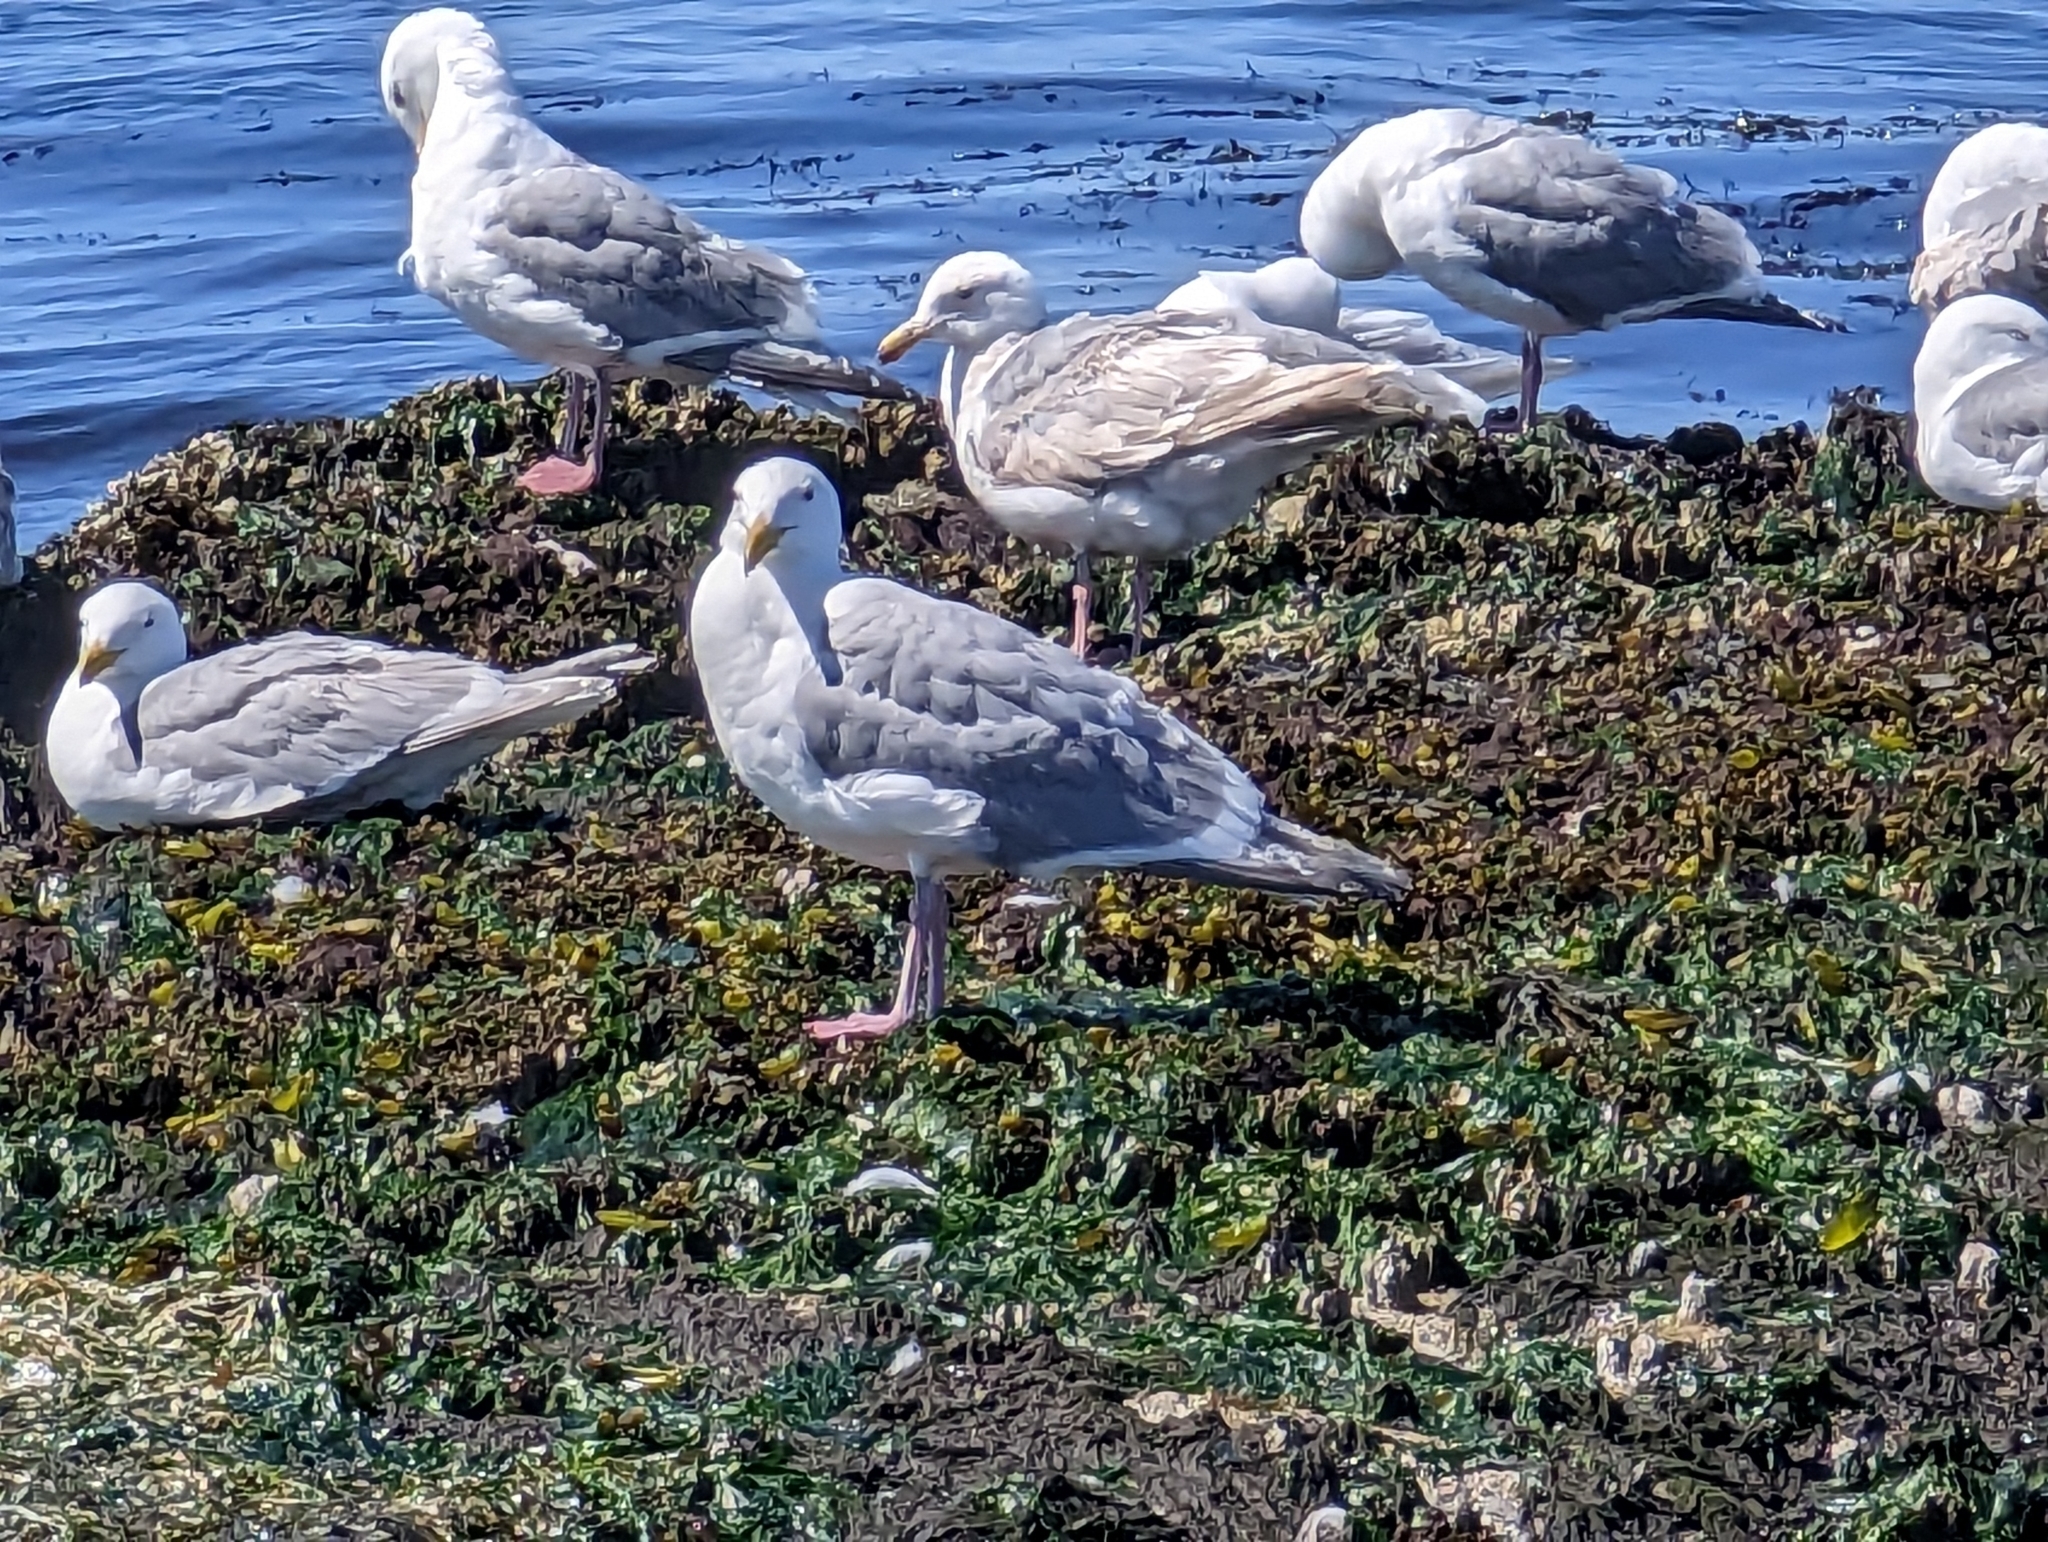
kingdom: Animalia
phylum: Chordata
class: Aves
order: Charadriiformes
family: Laridae
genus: Larus
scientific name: Larus
